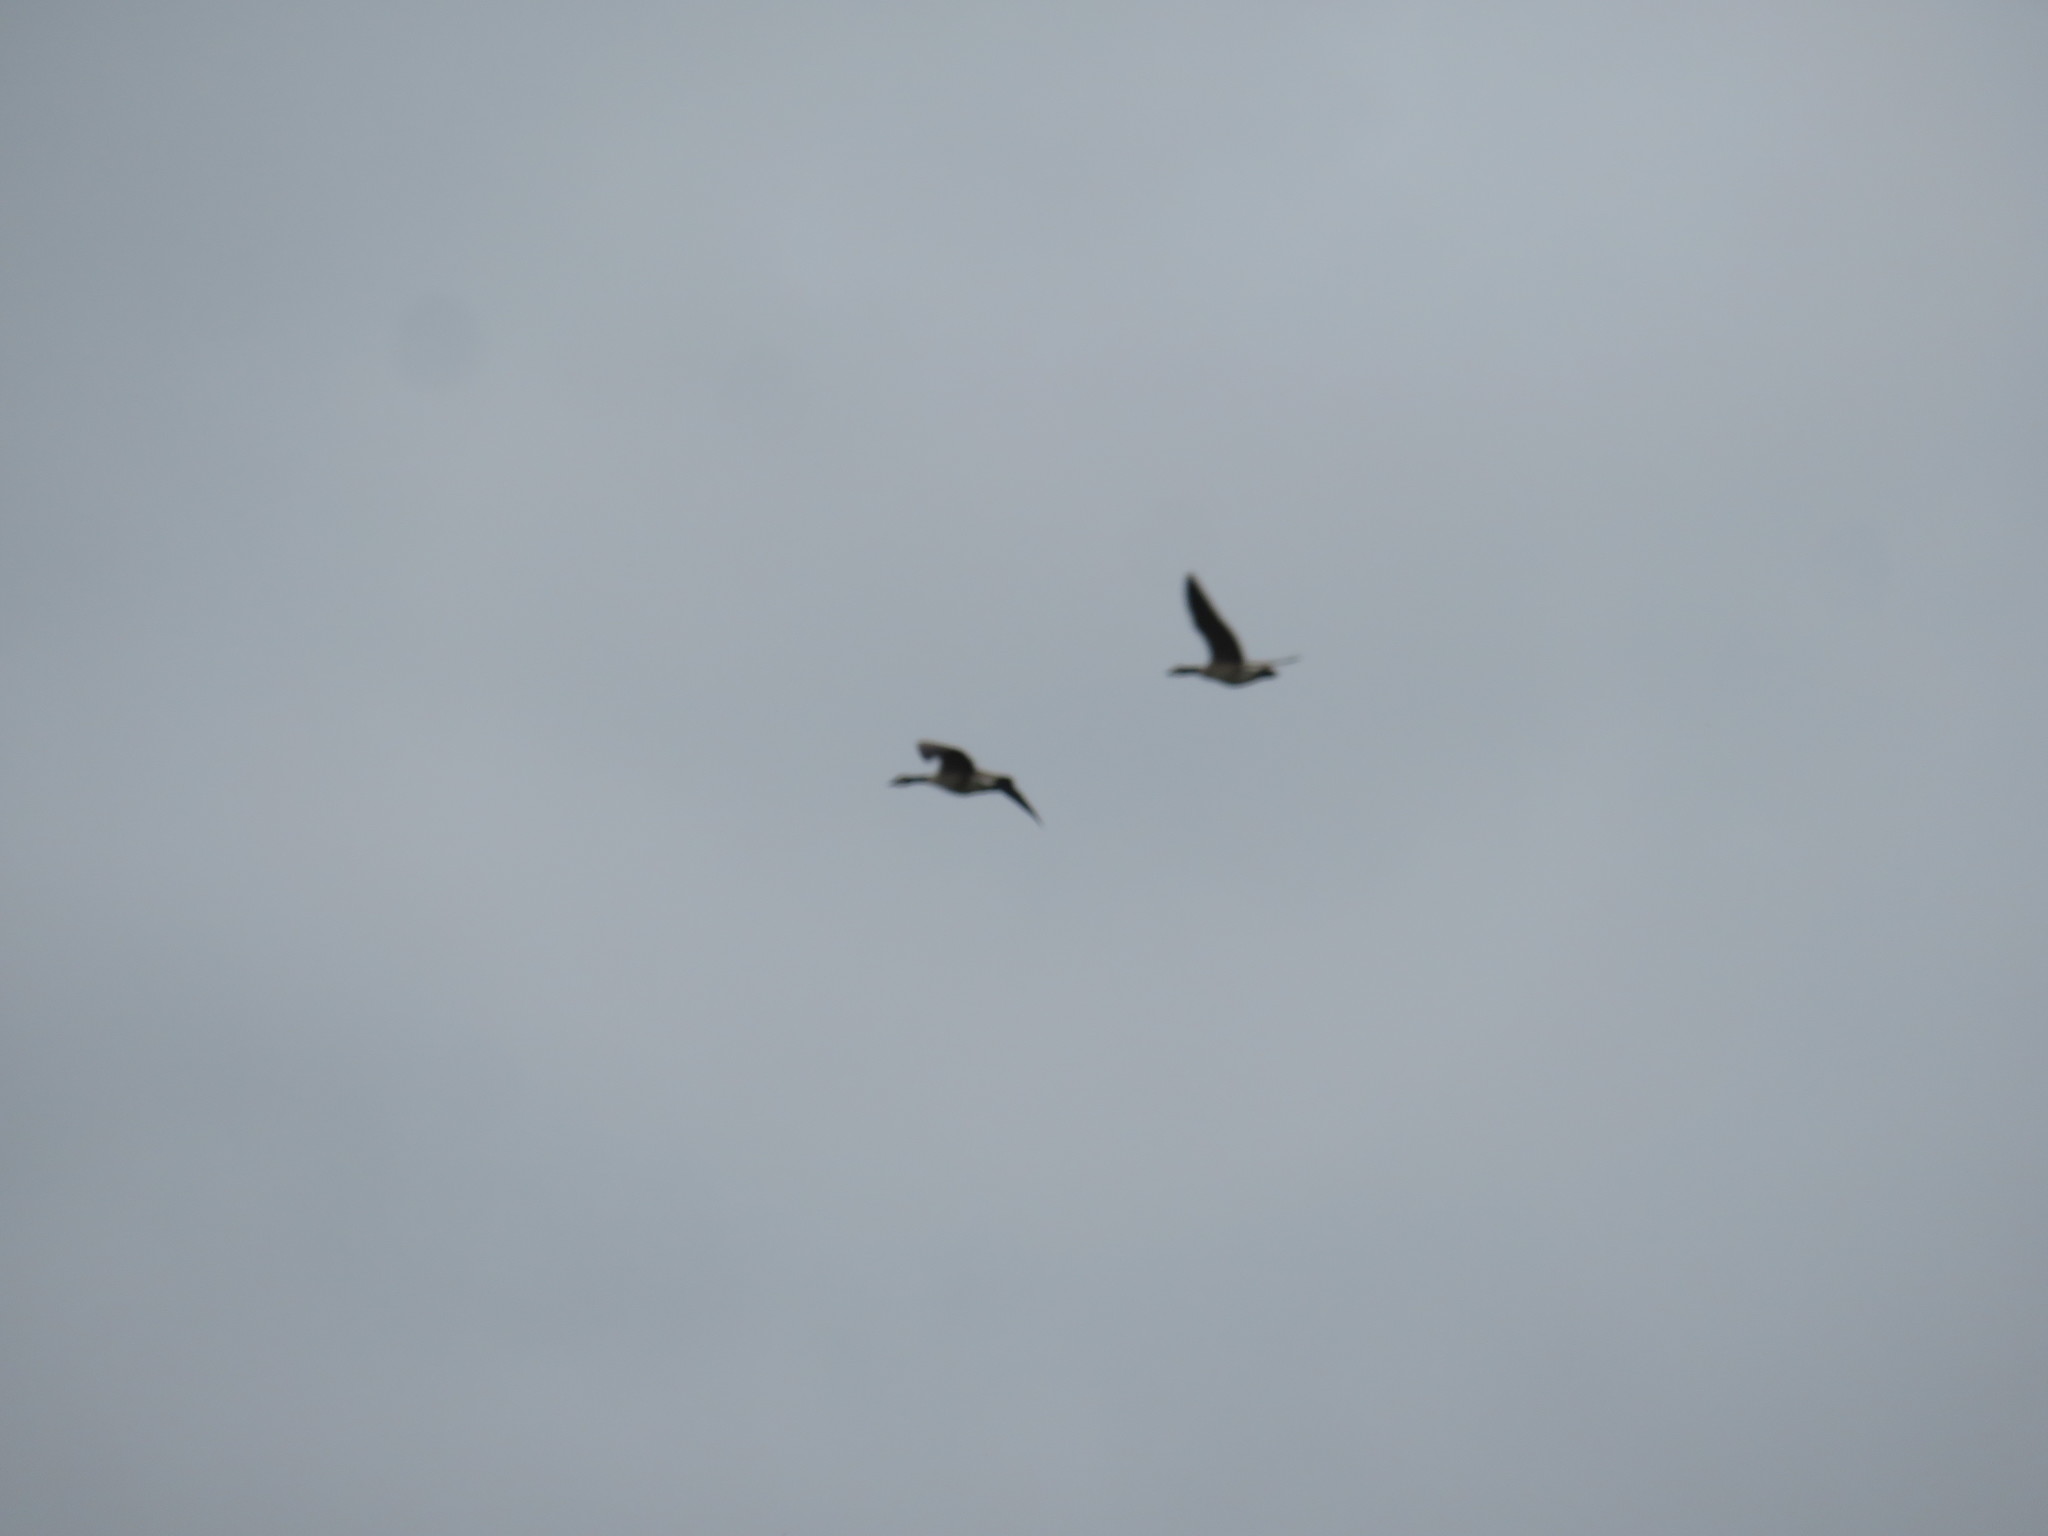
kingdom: Animalia
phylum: Chordata
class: Aves
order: Anseriformes
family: Anatidae
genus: Branta
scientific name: Branta canadensis
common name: Canada goose
